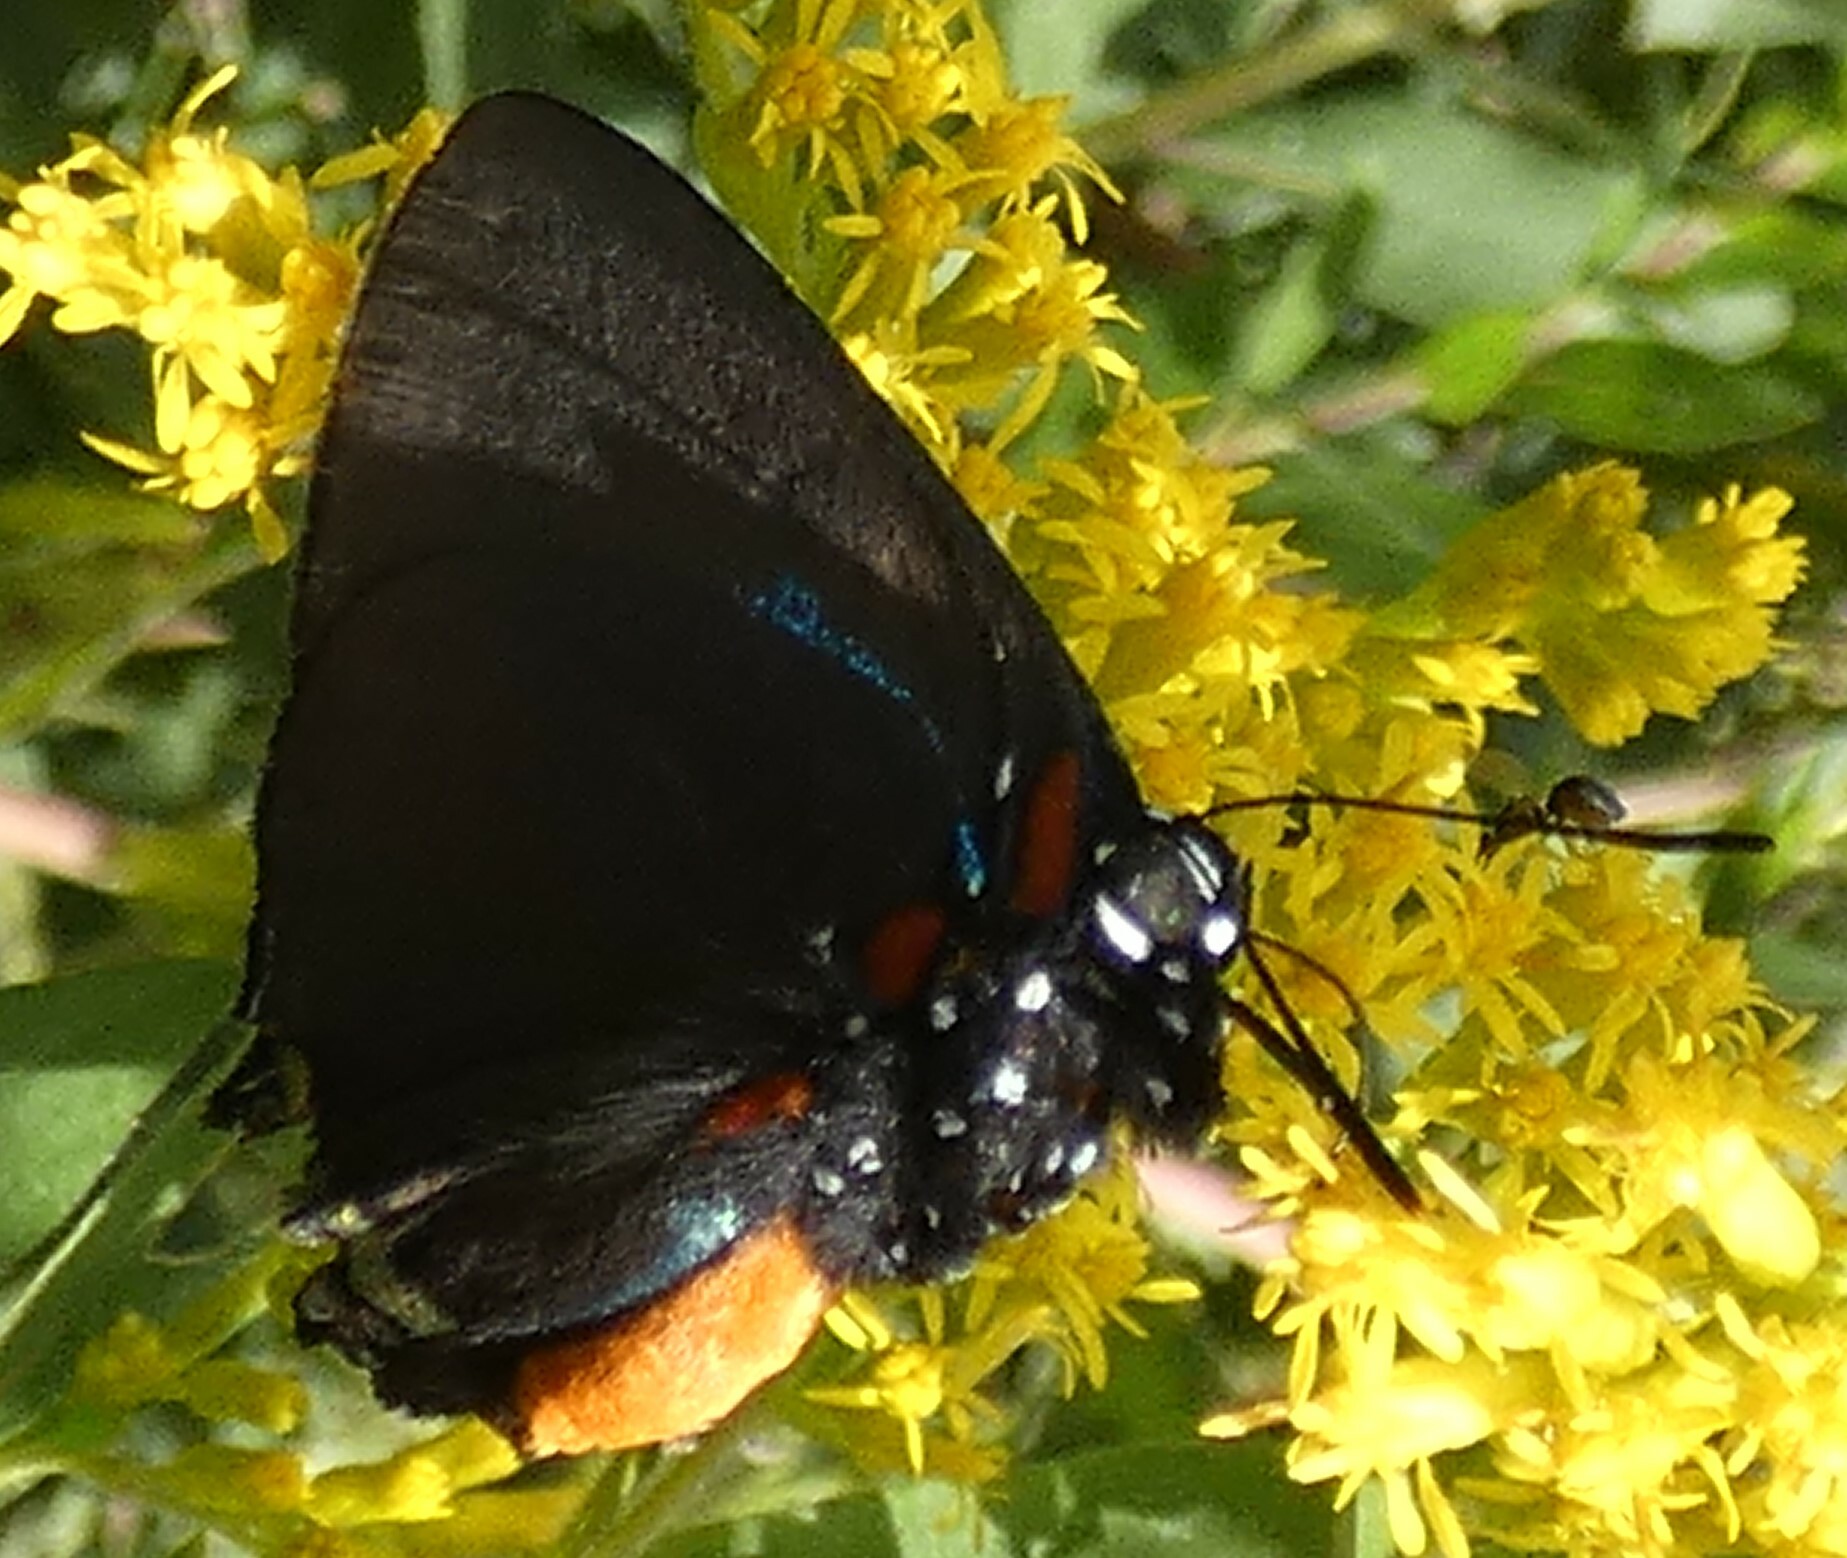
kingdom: Animalia
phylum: Arthropoda
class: Insecta
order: Lepidoptera
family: Lycaenidae
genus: Atlides
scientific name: Atlides halesus
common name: Great purple hairstreak
